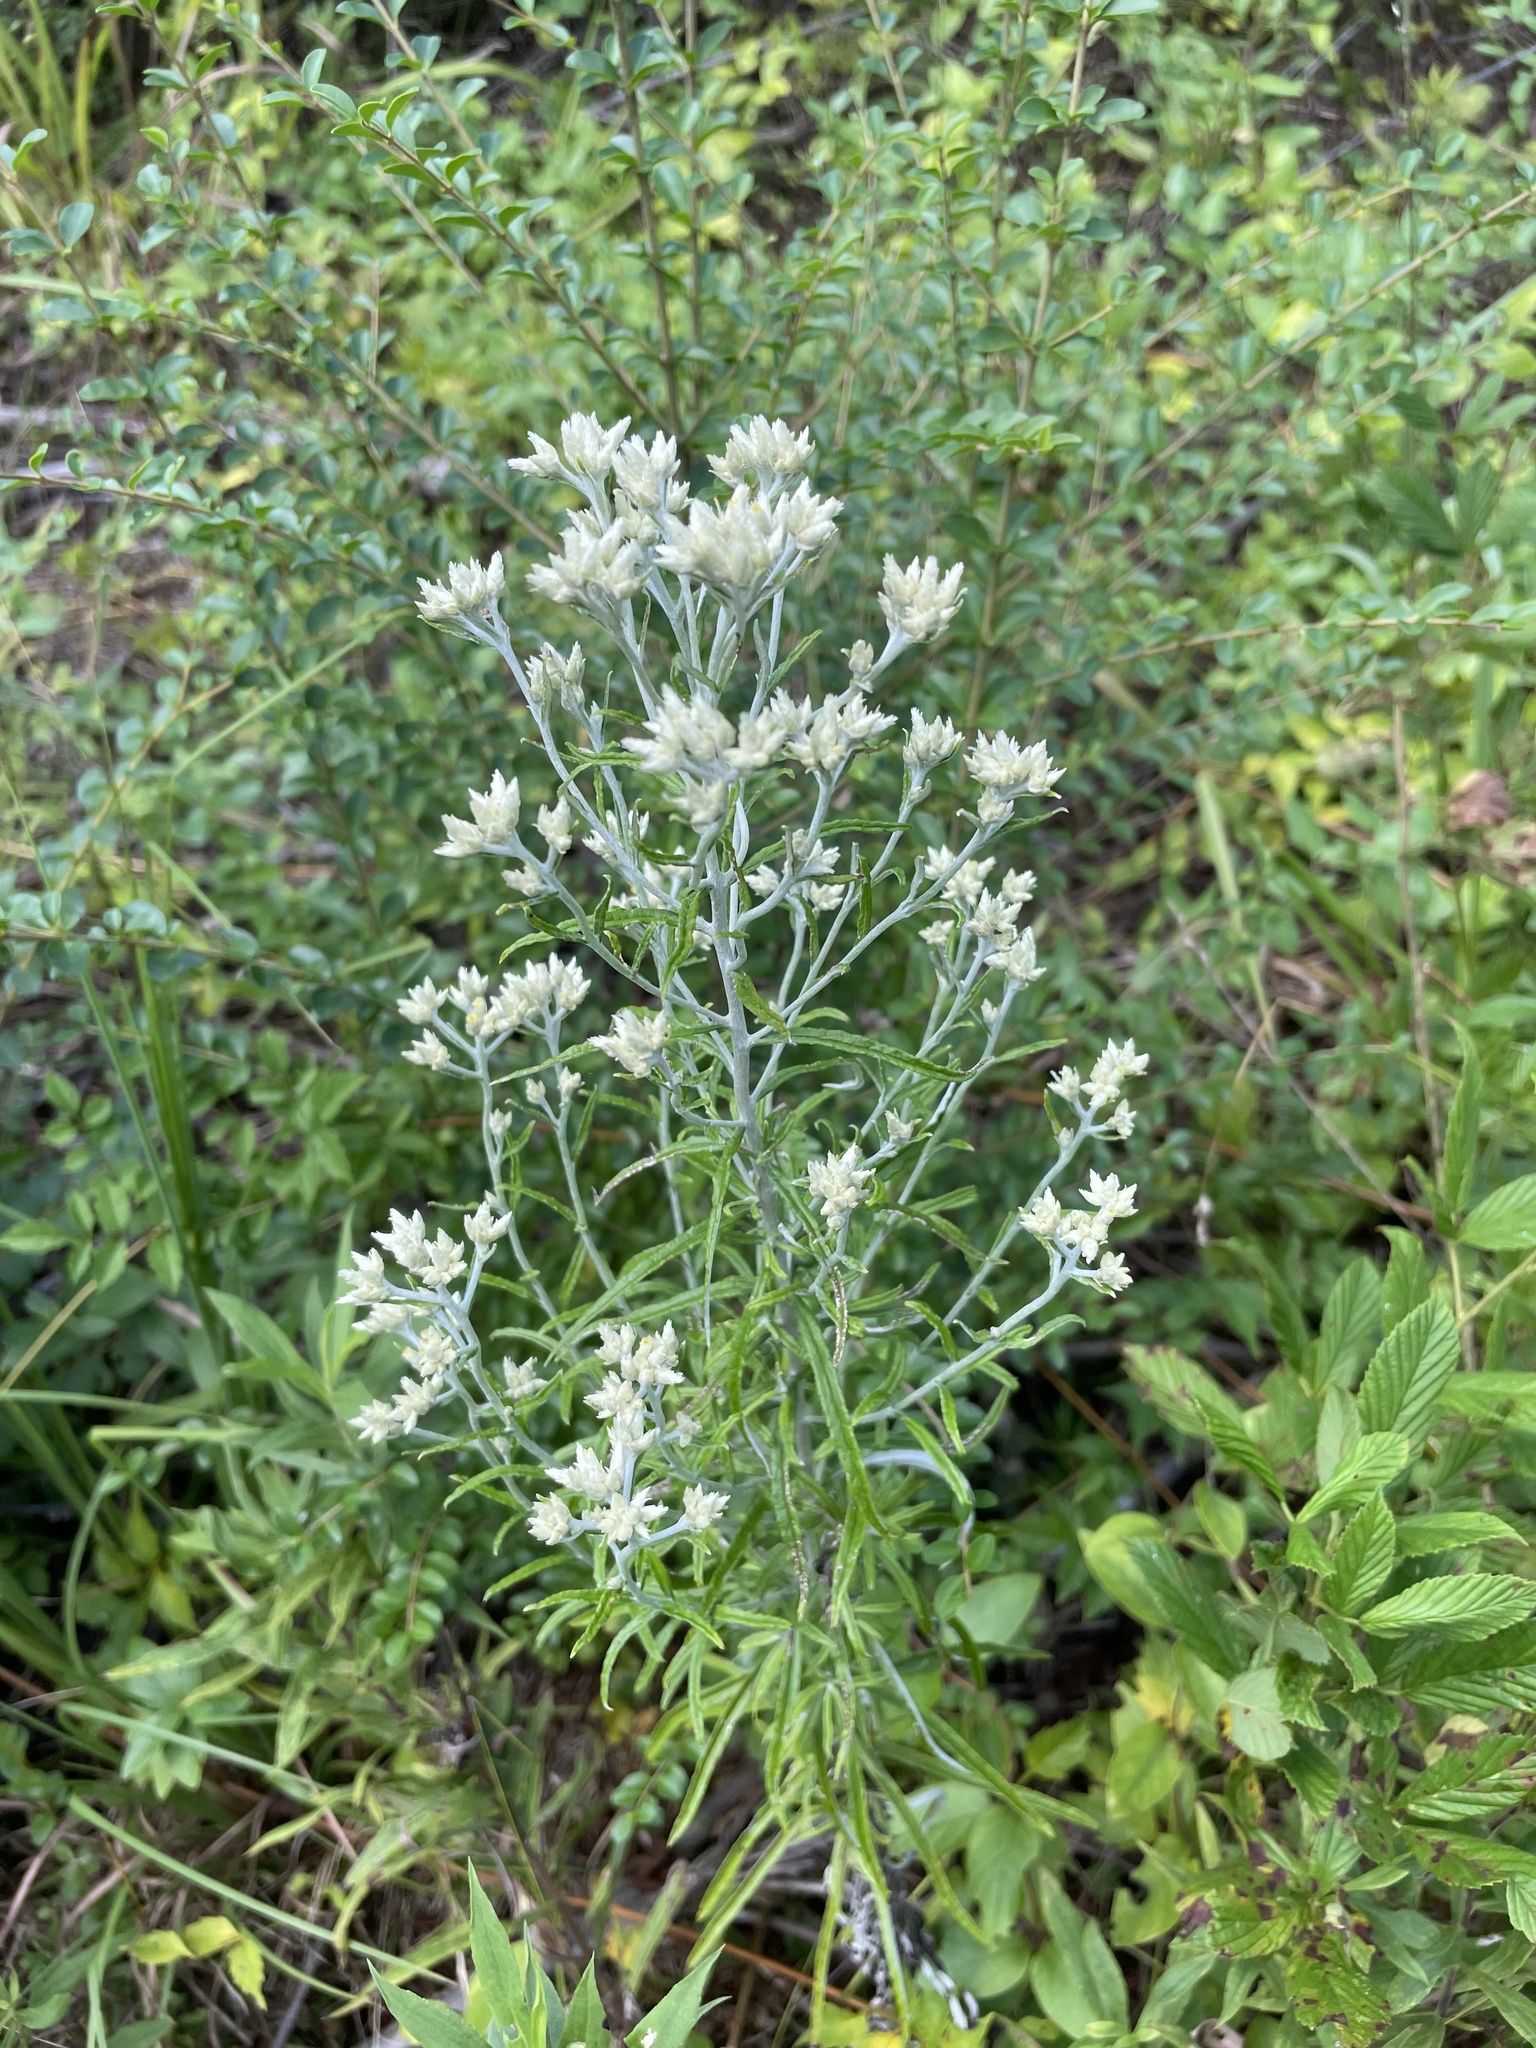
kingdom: Plantae
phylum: Tracheophyta
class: Magnoliopsida
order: Asterales
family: Asteraceae
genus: Pseudognaphalium
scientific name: Pseudognaphalium obtusifolium
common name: Eastern rabbit-tobacco
